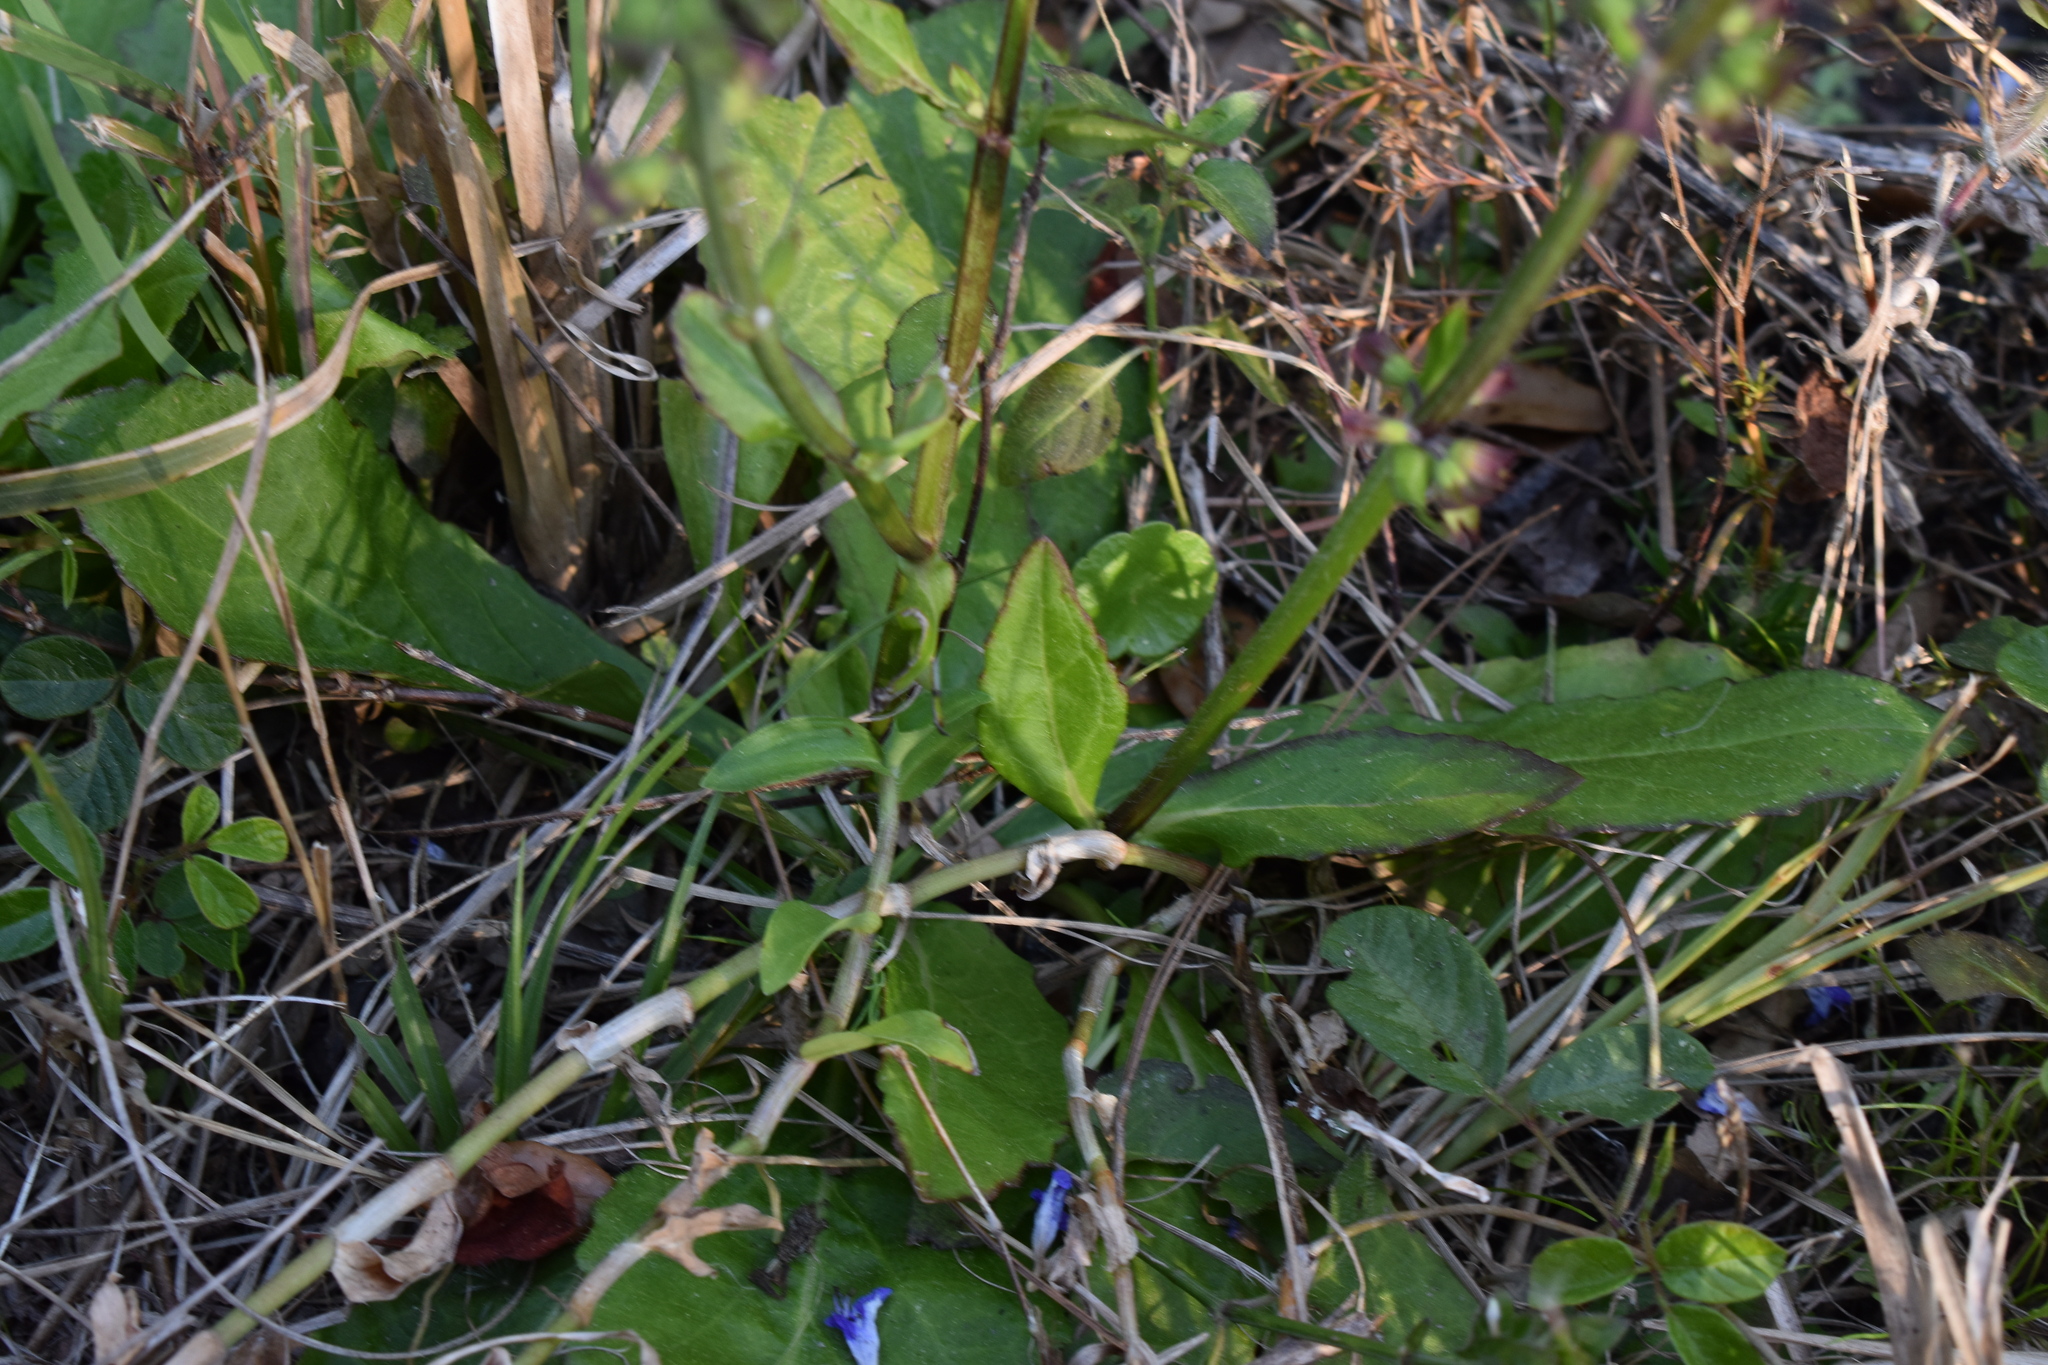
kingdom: Plantae
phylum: Tracheophyta
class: Magnoliopsida
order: Lamiales
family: Lamiaceae
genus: Salvia
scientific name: Salvia lyrata
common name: Cancerweed
